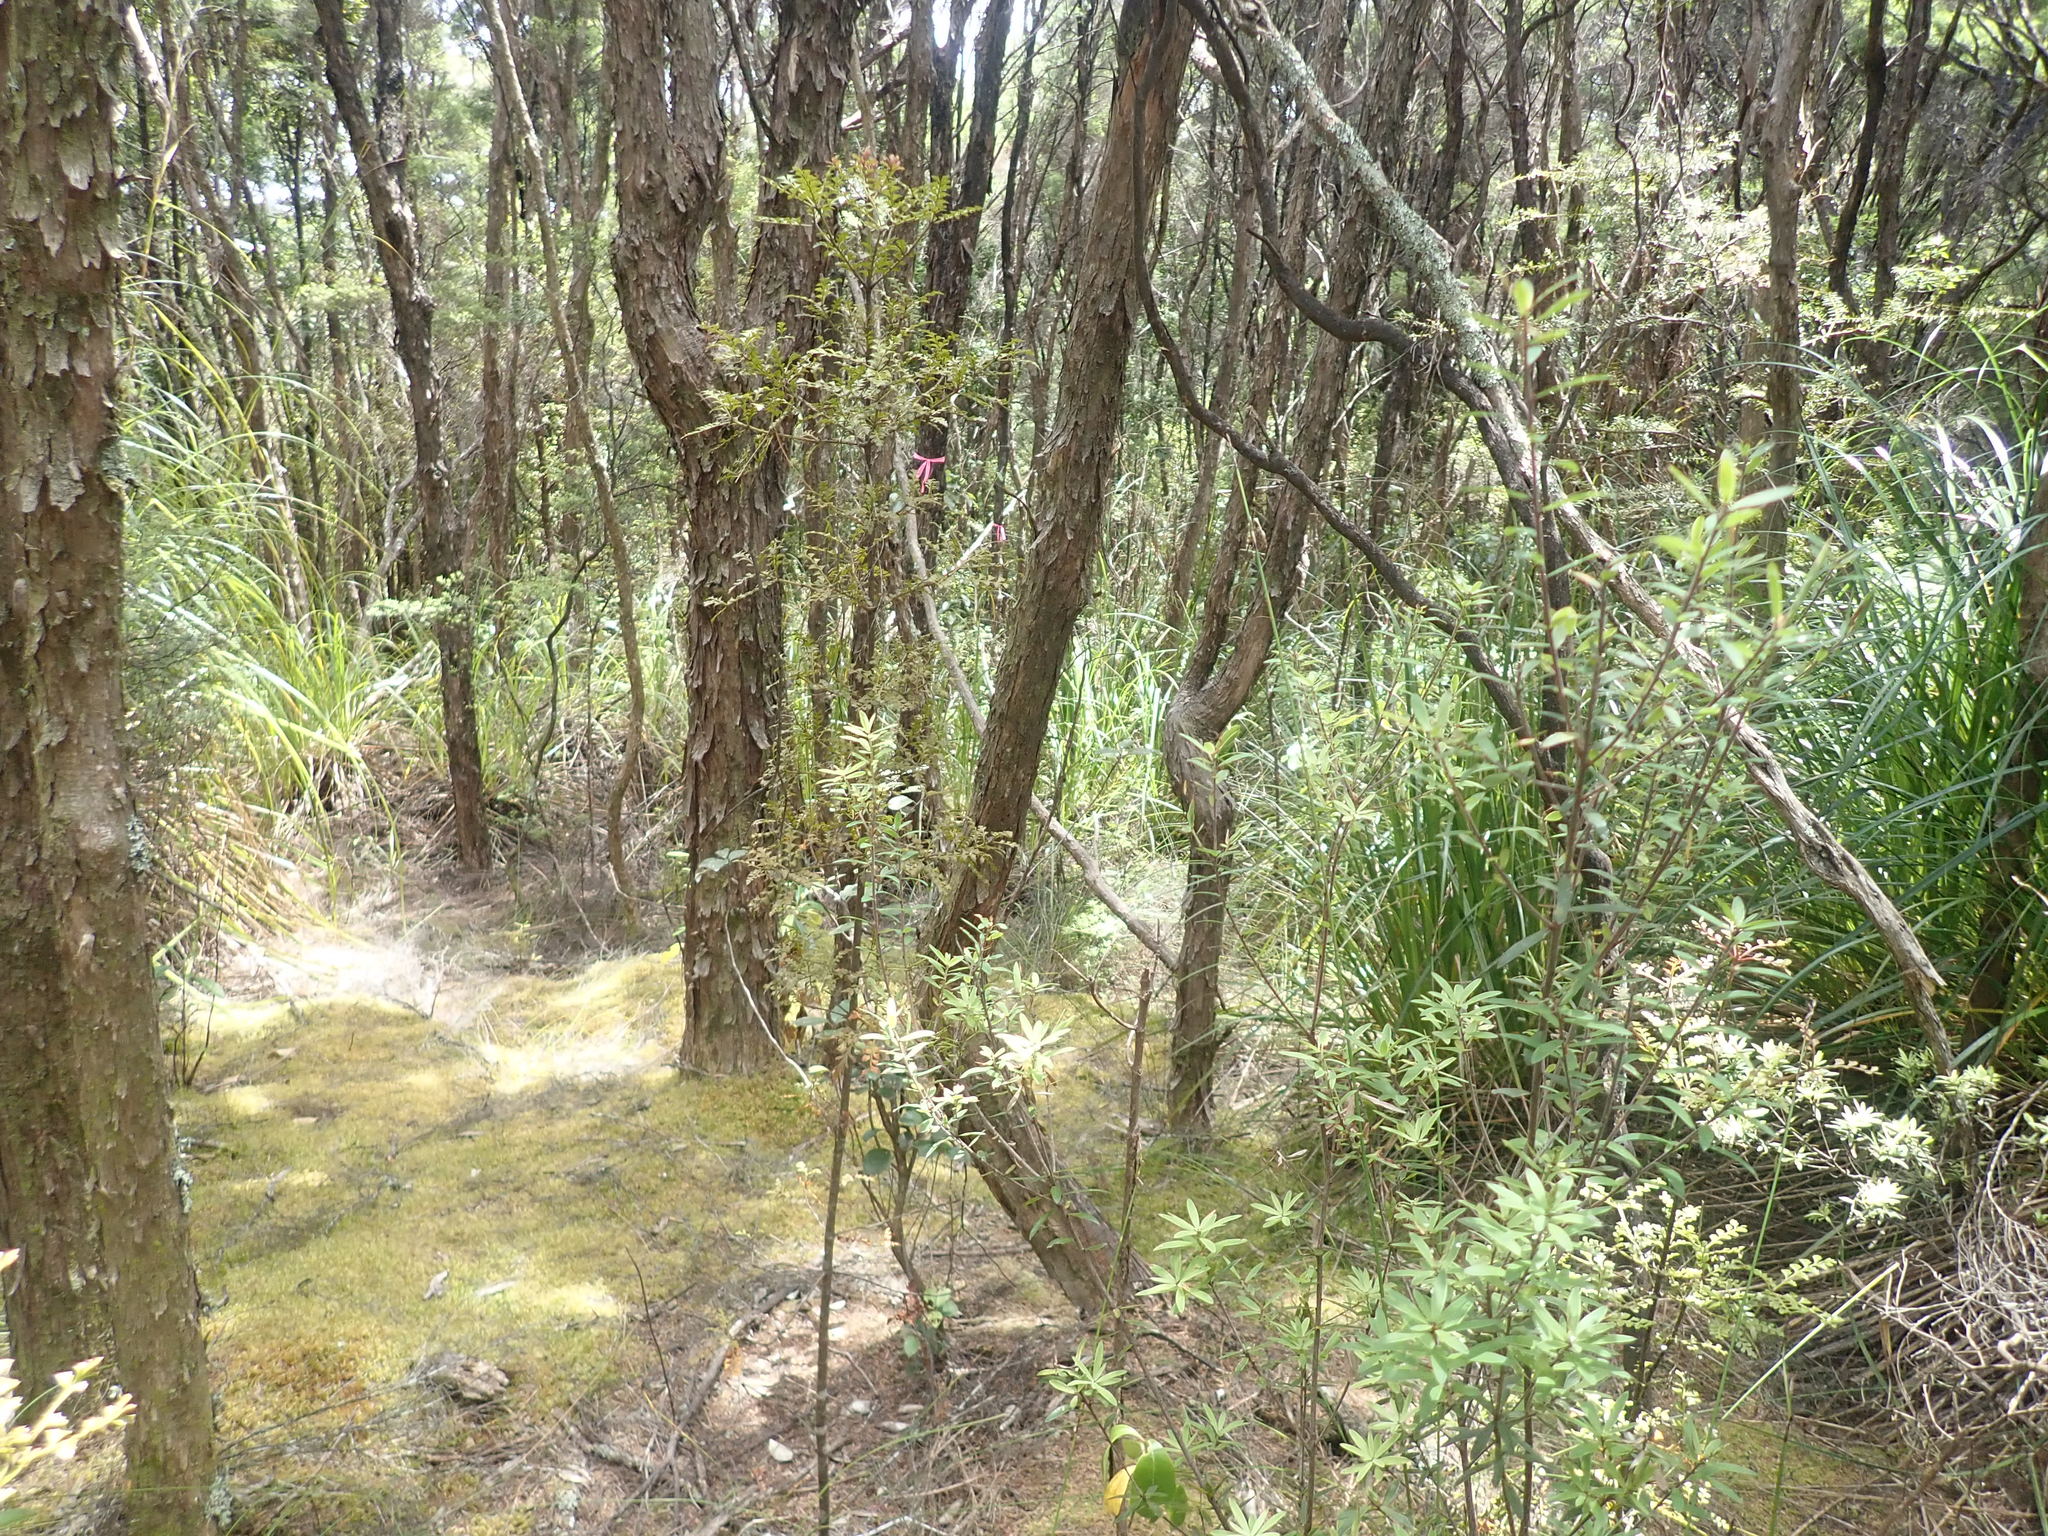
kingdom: Plantae
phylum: Tracheophyta
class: Magnoliopsida
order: Ericales
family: Ericaceae
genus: Leucopogon
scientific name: Leucopogon fasciculatus
